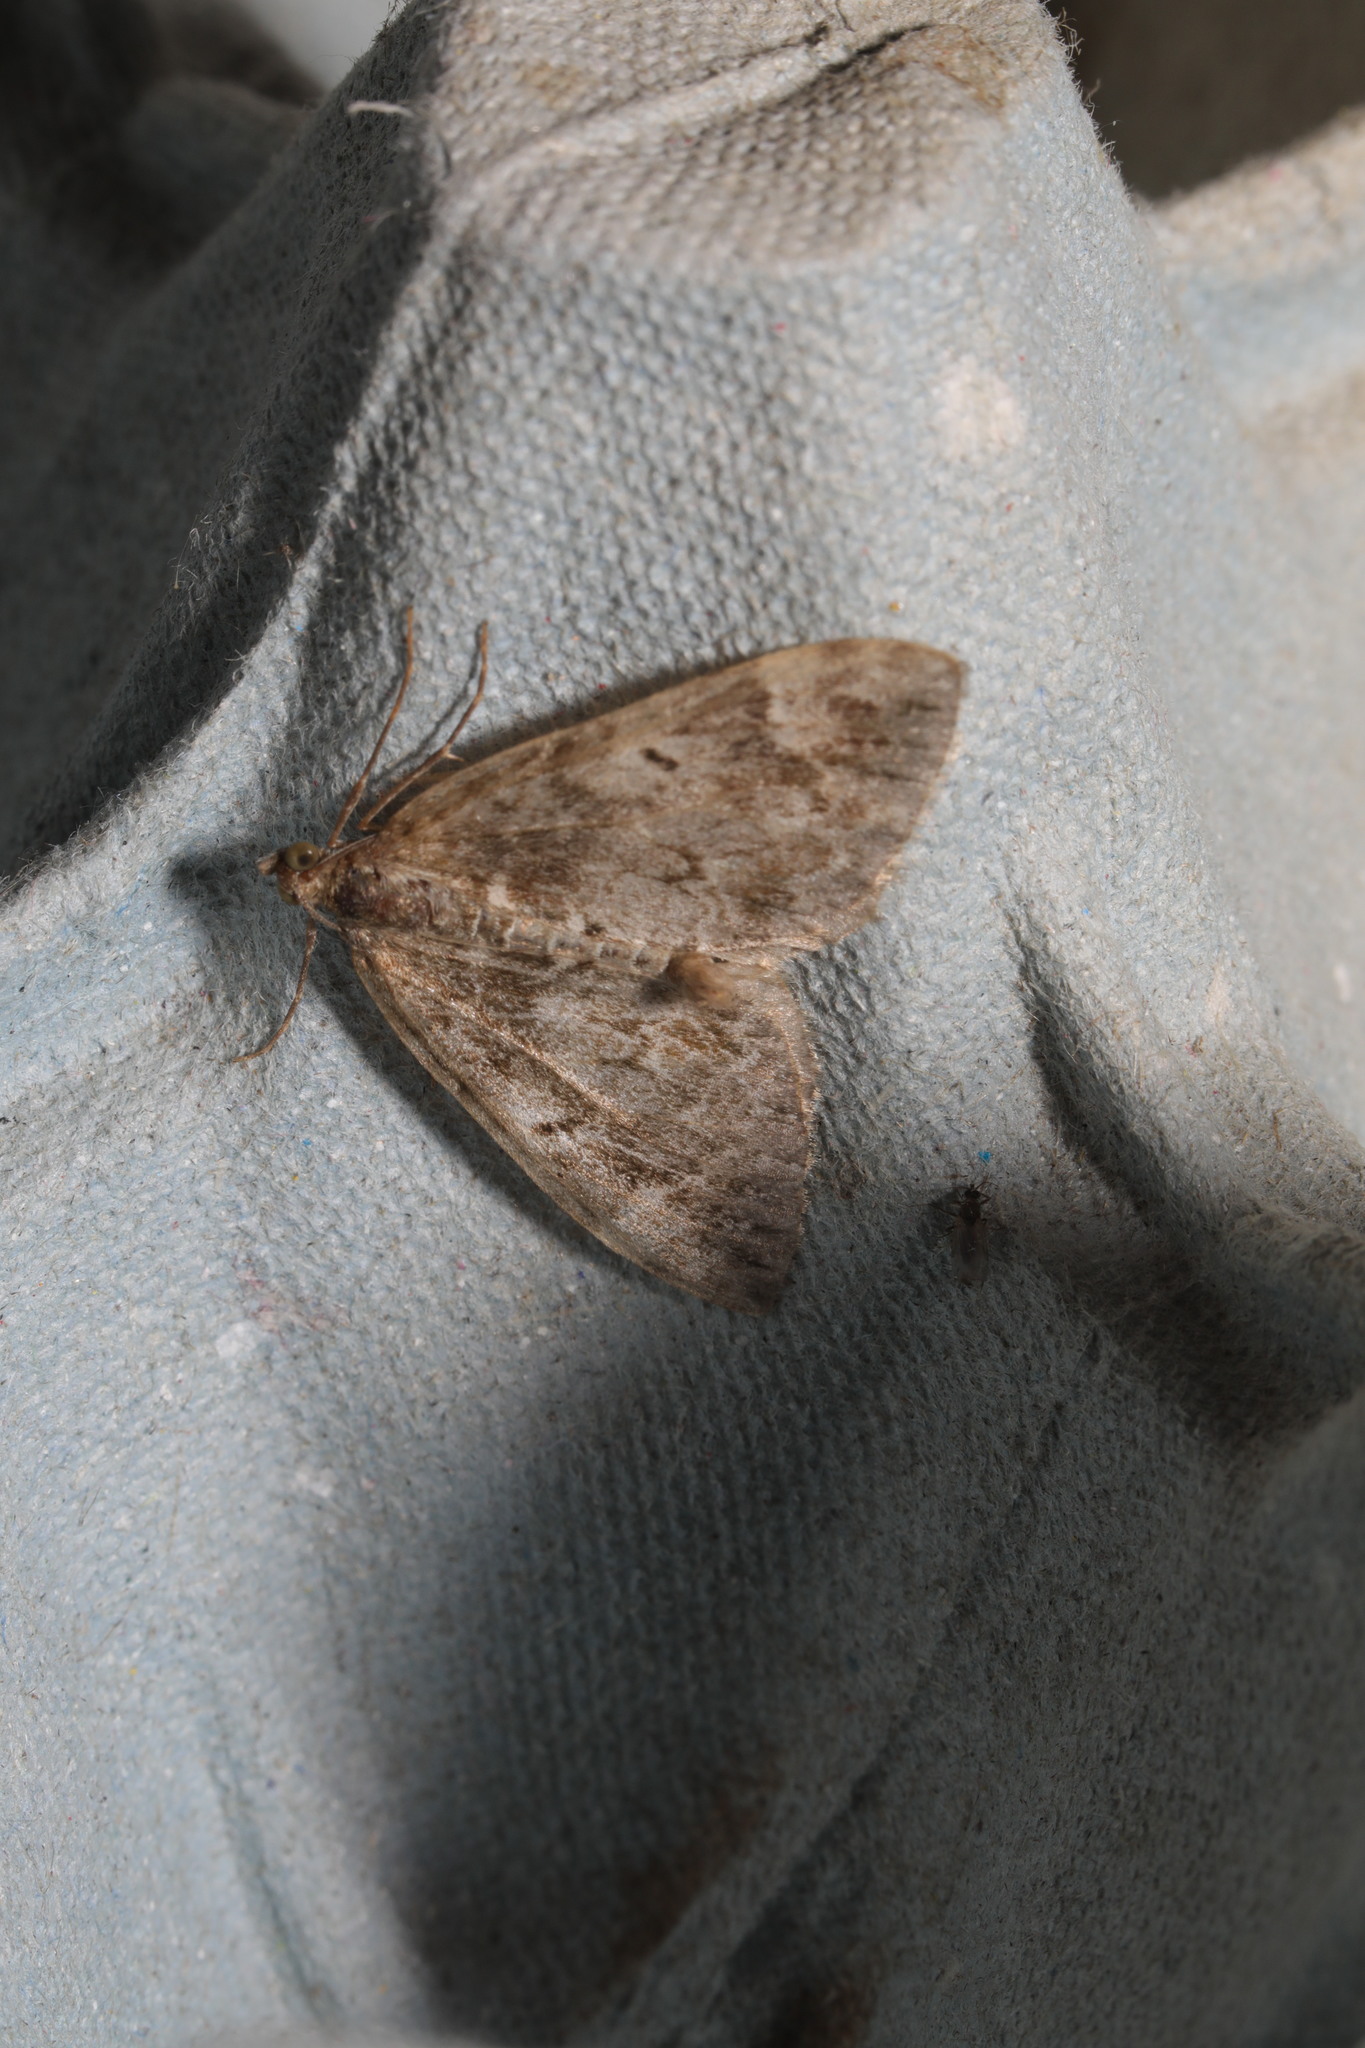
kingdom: Animalia
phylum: Arthropoda
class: Insecta
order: Lepidoptera
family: Geometridae
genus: Dysstroma
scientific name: Dysstroma truncata
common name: Common marbled carpet
